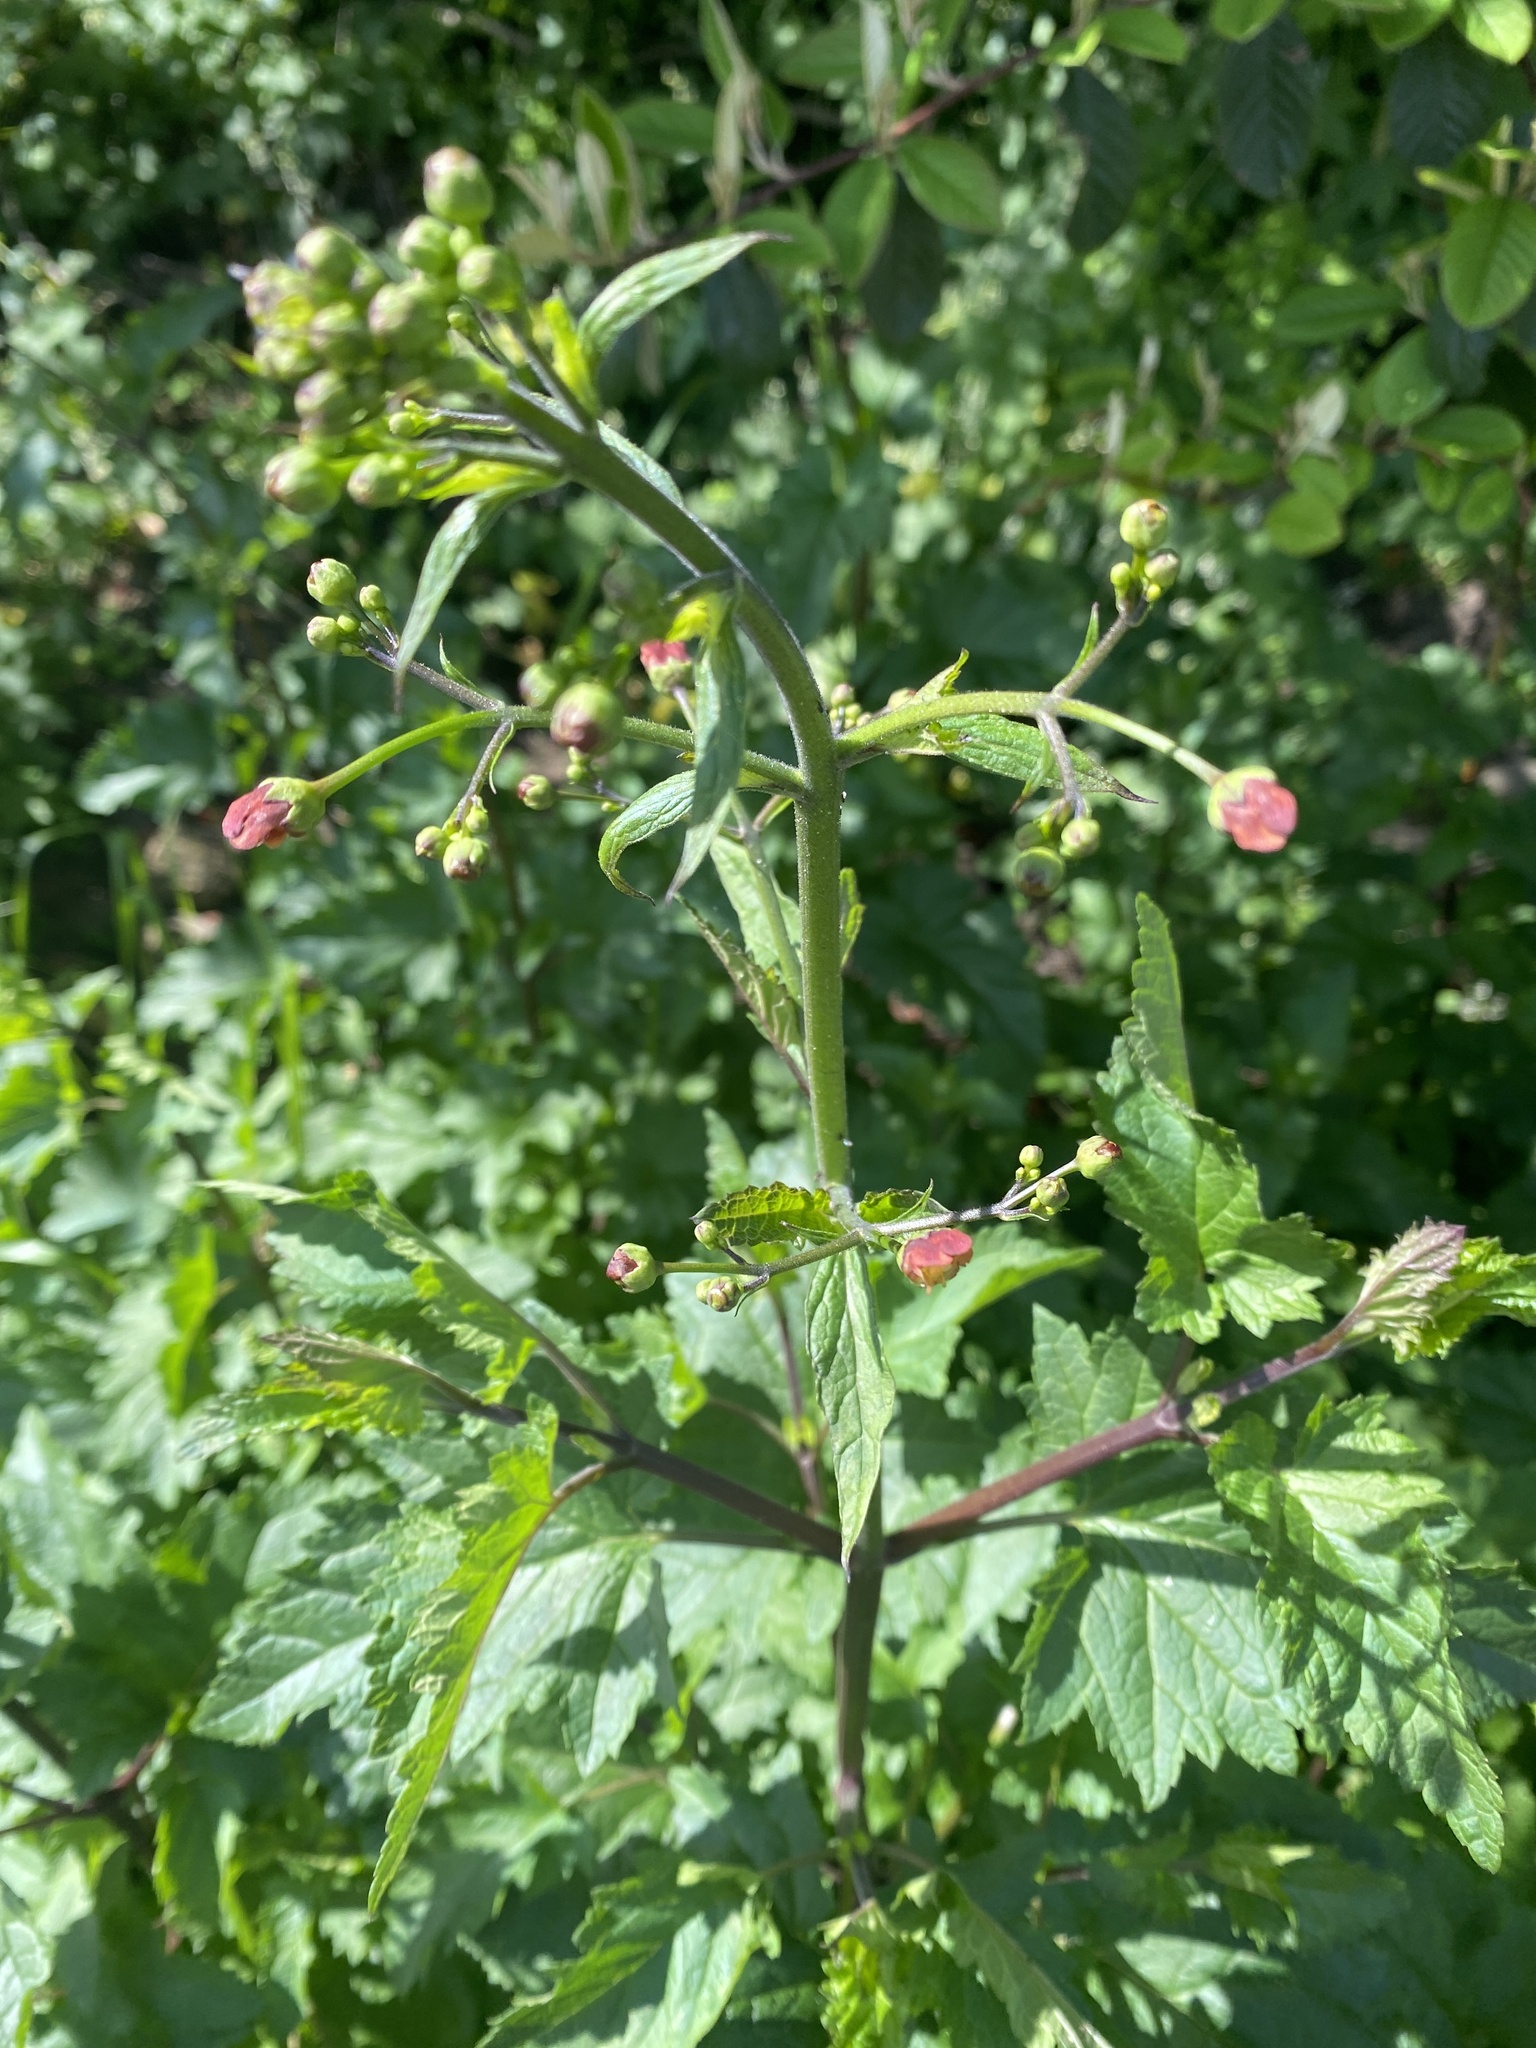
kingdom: Plantae
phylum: Tracheophyta
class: Magnoliopsida
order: Lamiales
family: Scrophulariaceae
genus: Scrophularia
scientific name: Scrophularia californica
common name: California figwort
